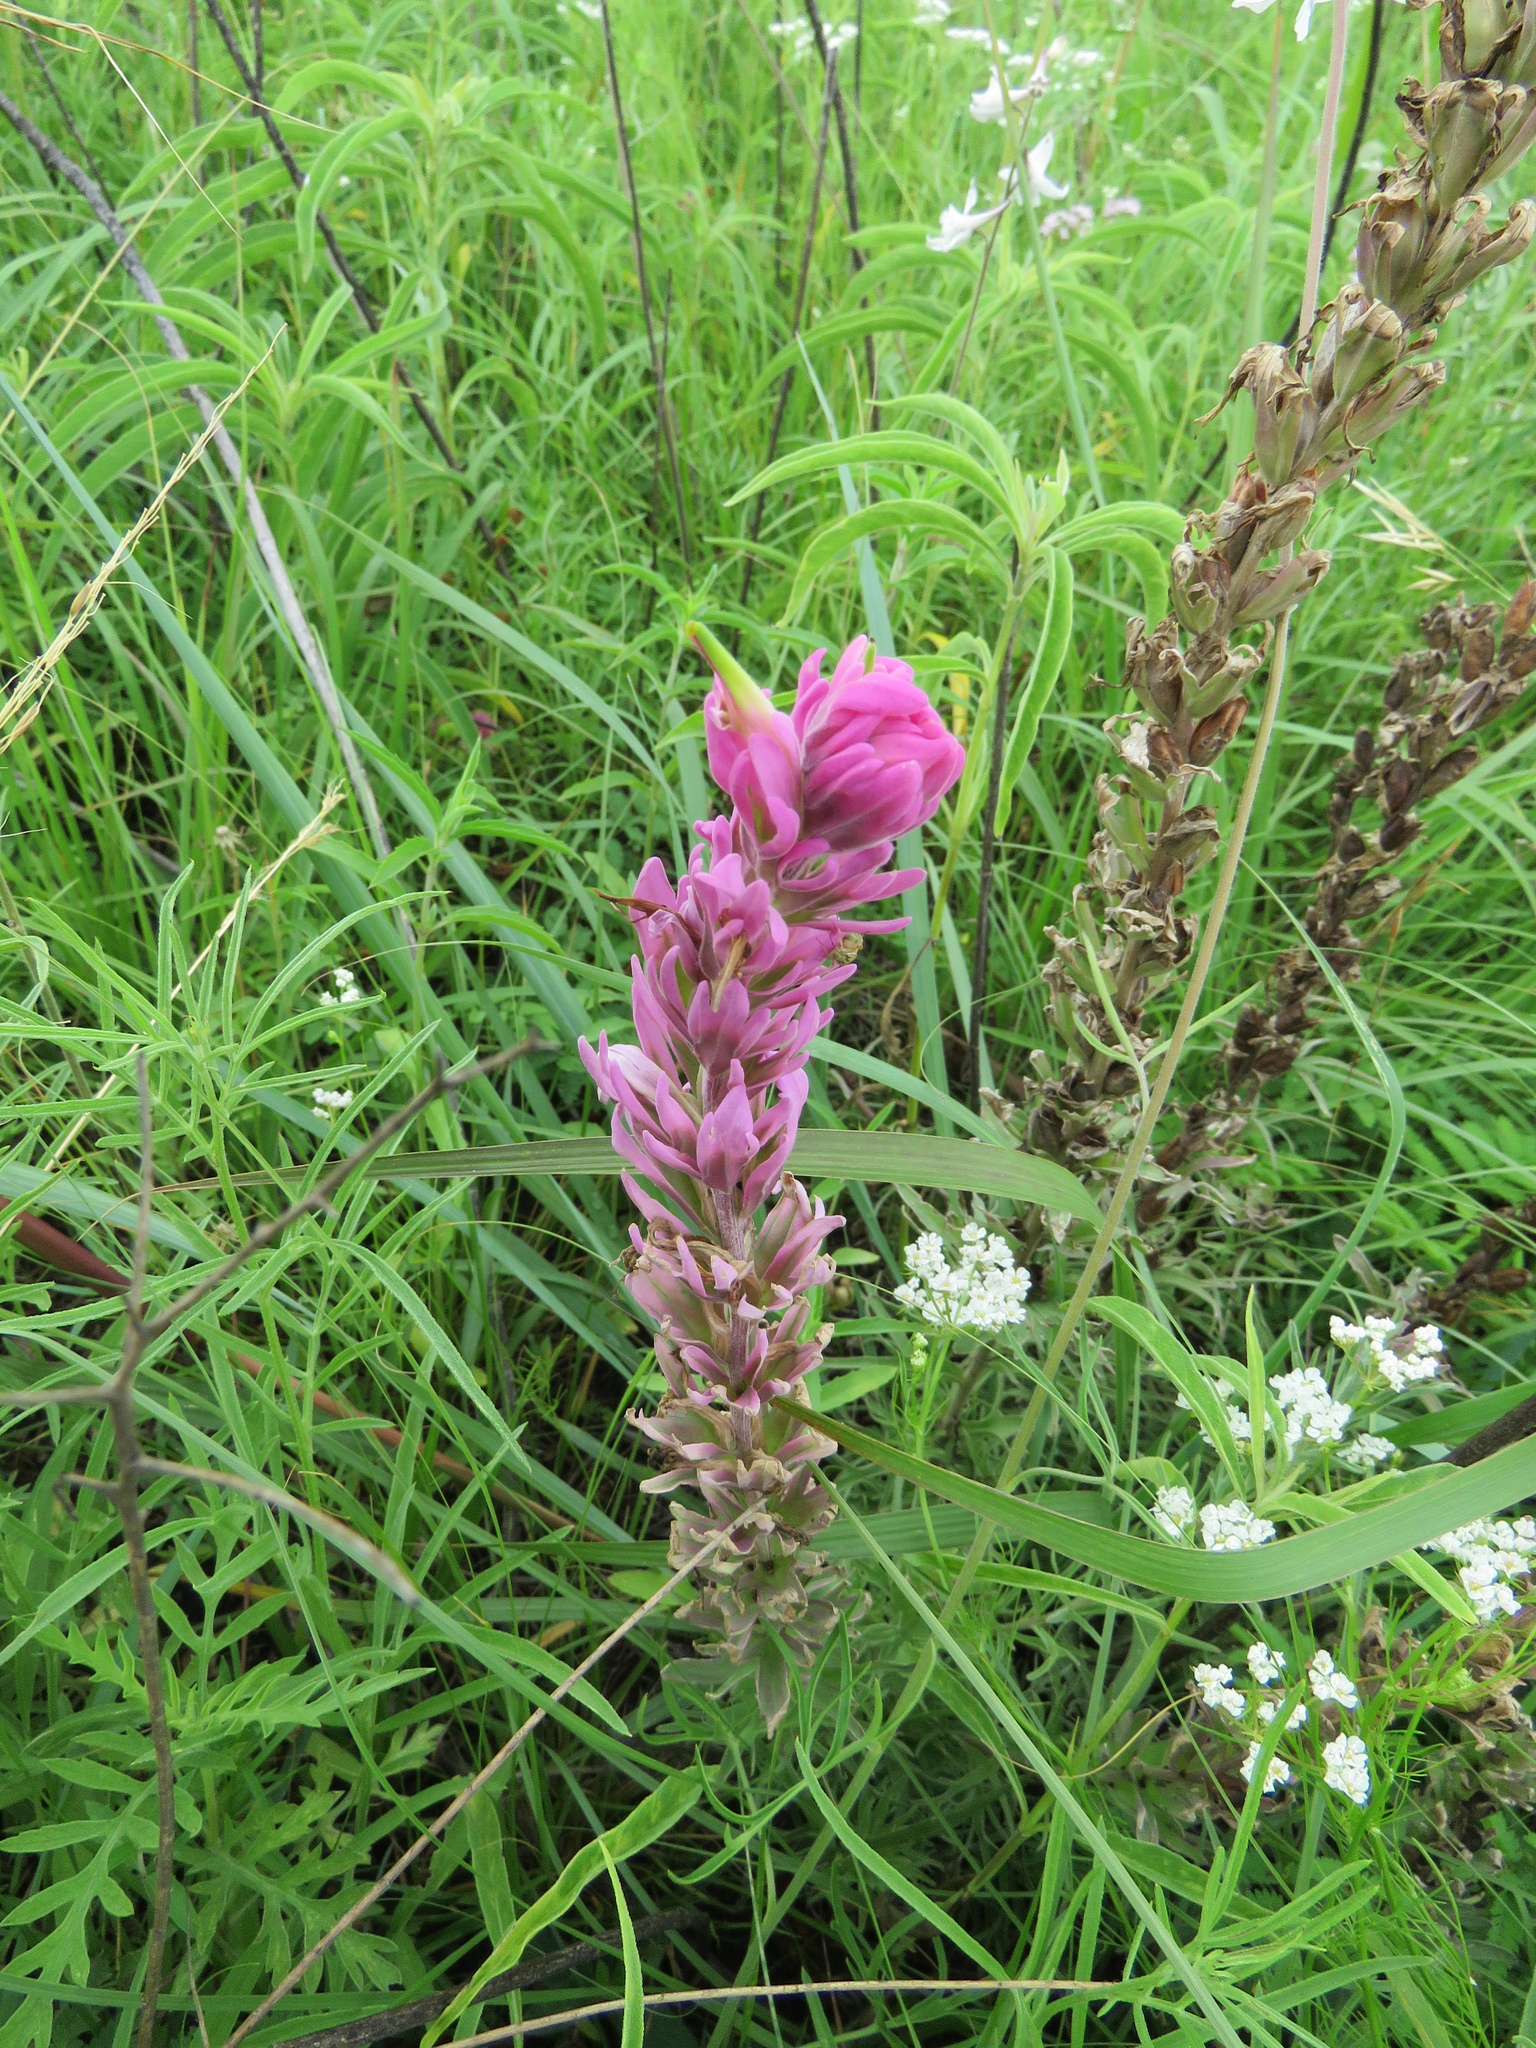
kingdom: Plantae
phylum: Tracheophyta
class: Magnoliopsida
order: Lamiales
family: Orobanchaceae
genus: Castilleja
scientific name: Castilleja purpurea
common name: Plains paintbrush
